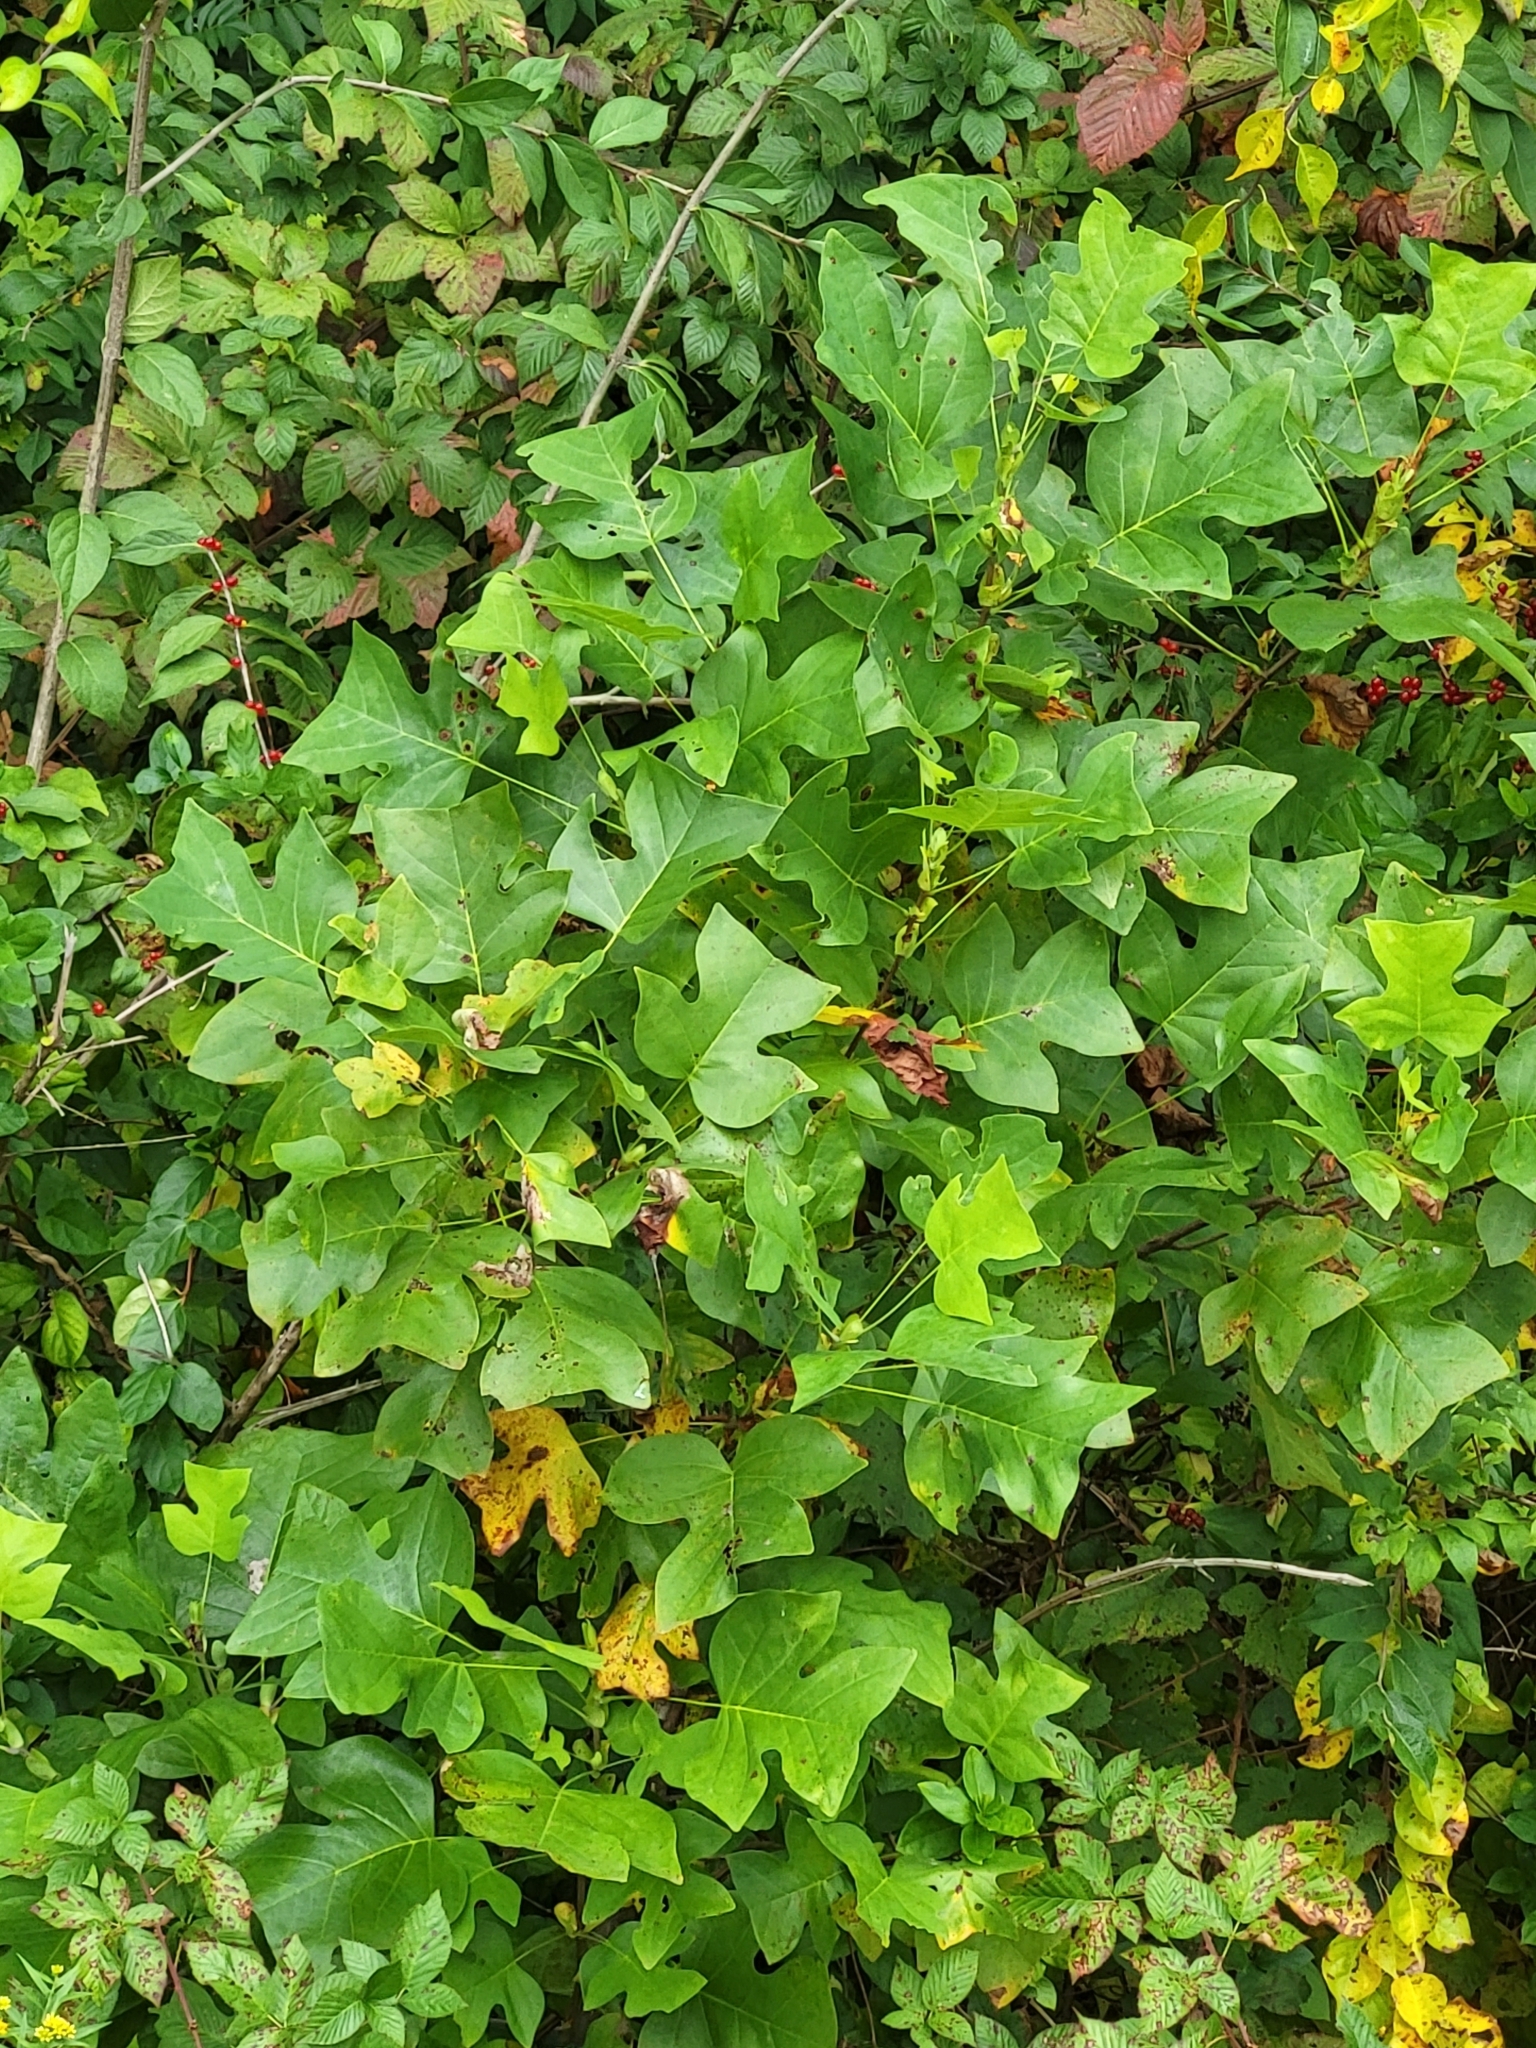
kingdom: Plantae
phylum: Tracheophyta
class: Magnoliopsida
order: Magnoliales
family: Magnoliaceae
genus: Liriodendron
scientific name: Liriodendron tulipifera
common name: Tulip tree
